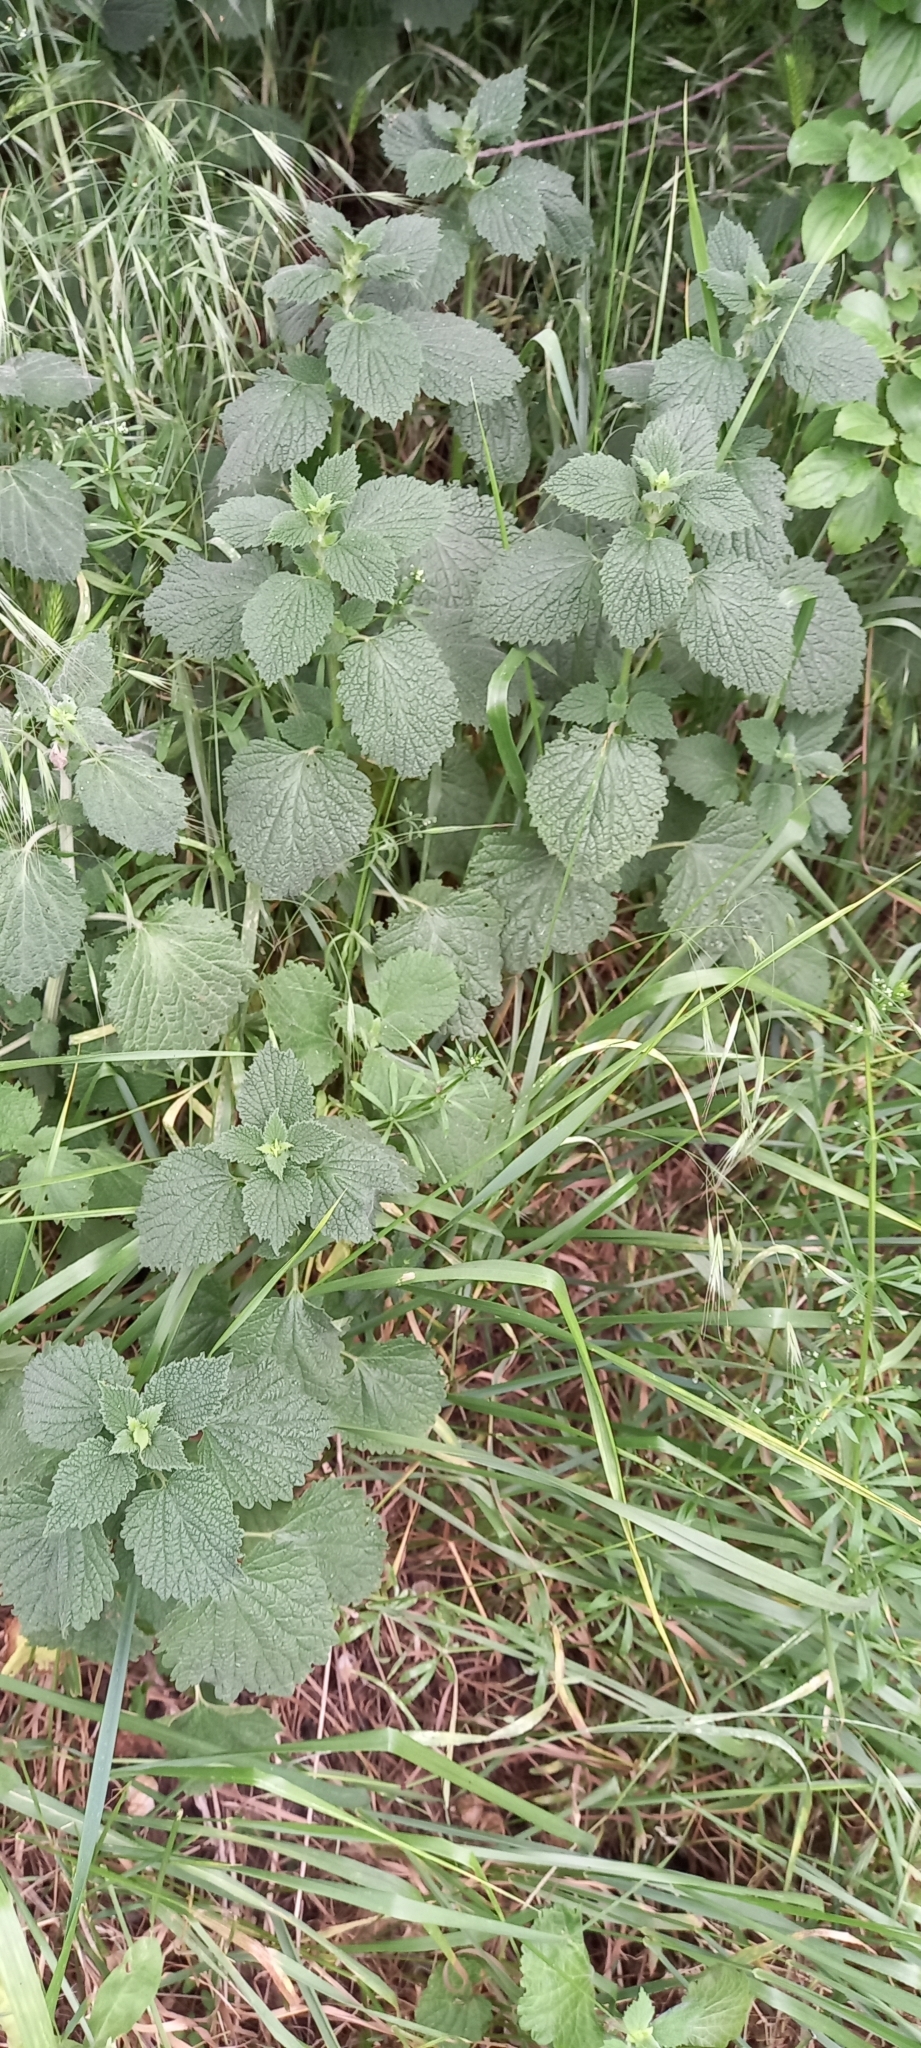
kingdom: Plantae
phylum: Tracheophyta
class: Magnoliopsida
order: Lamiales
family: Lamiaceae
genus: Ballota
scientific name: Ballota nigra
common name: Black horehound
